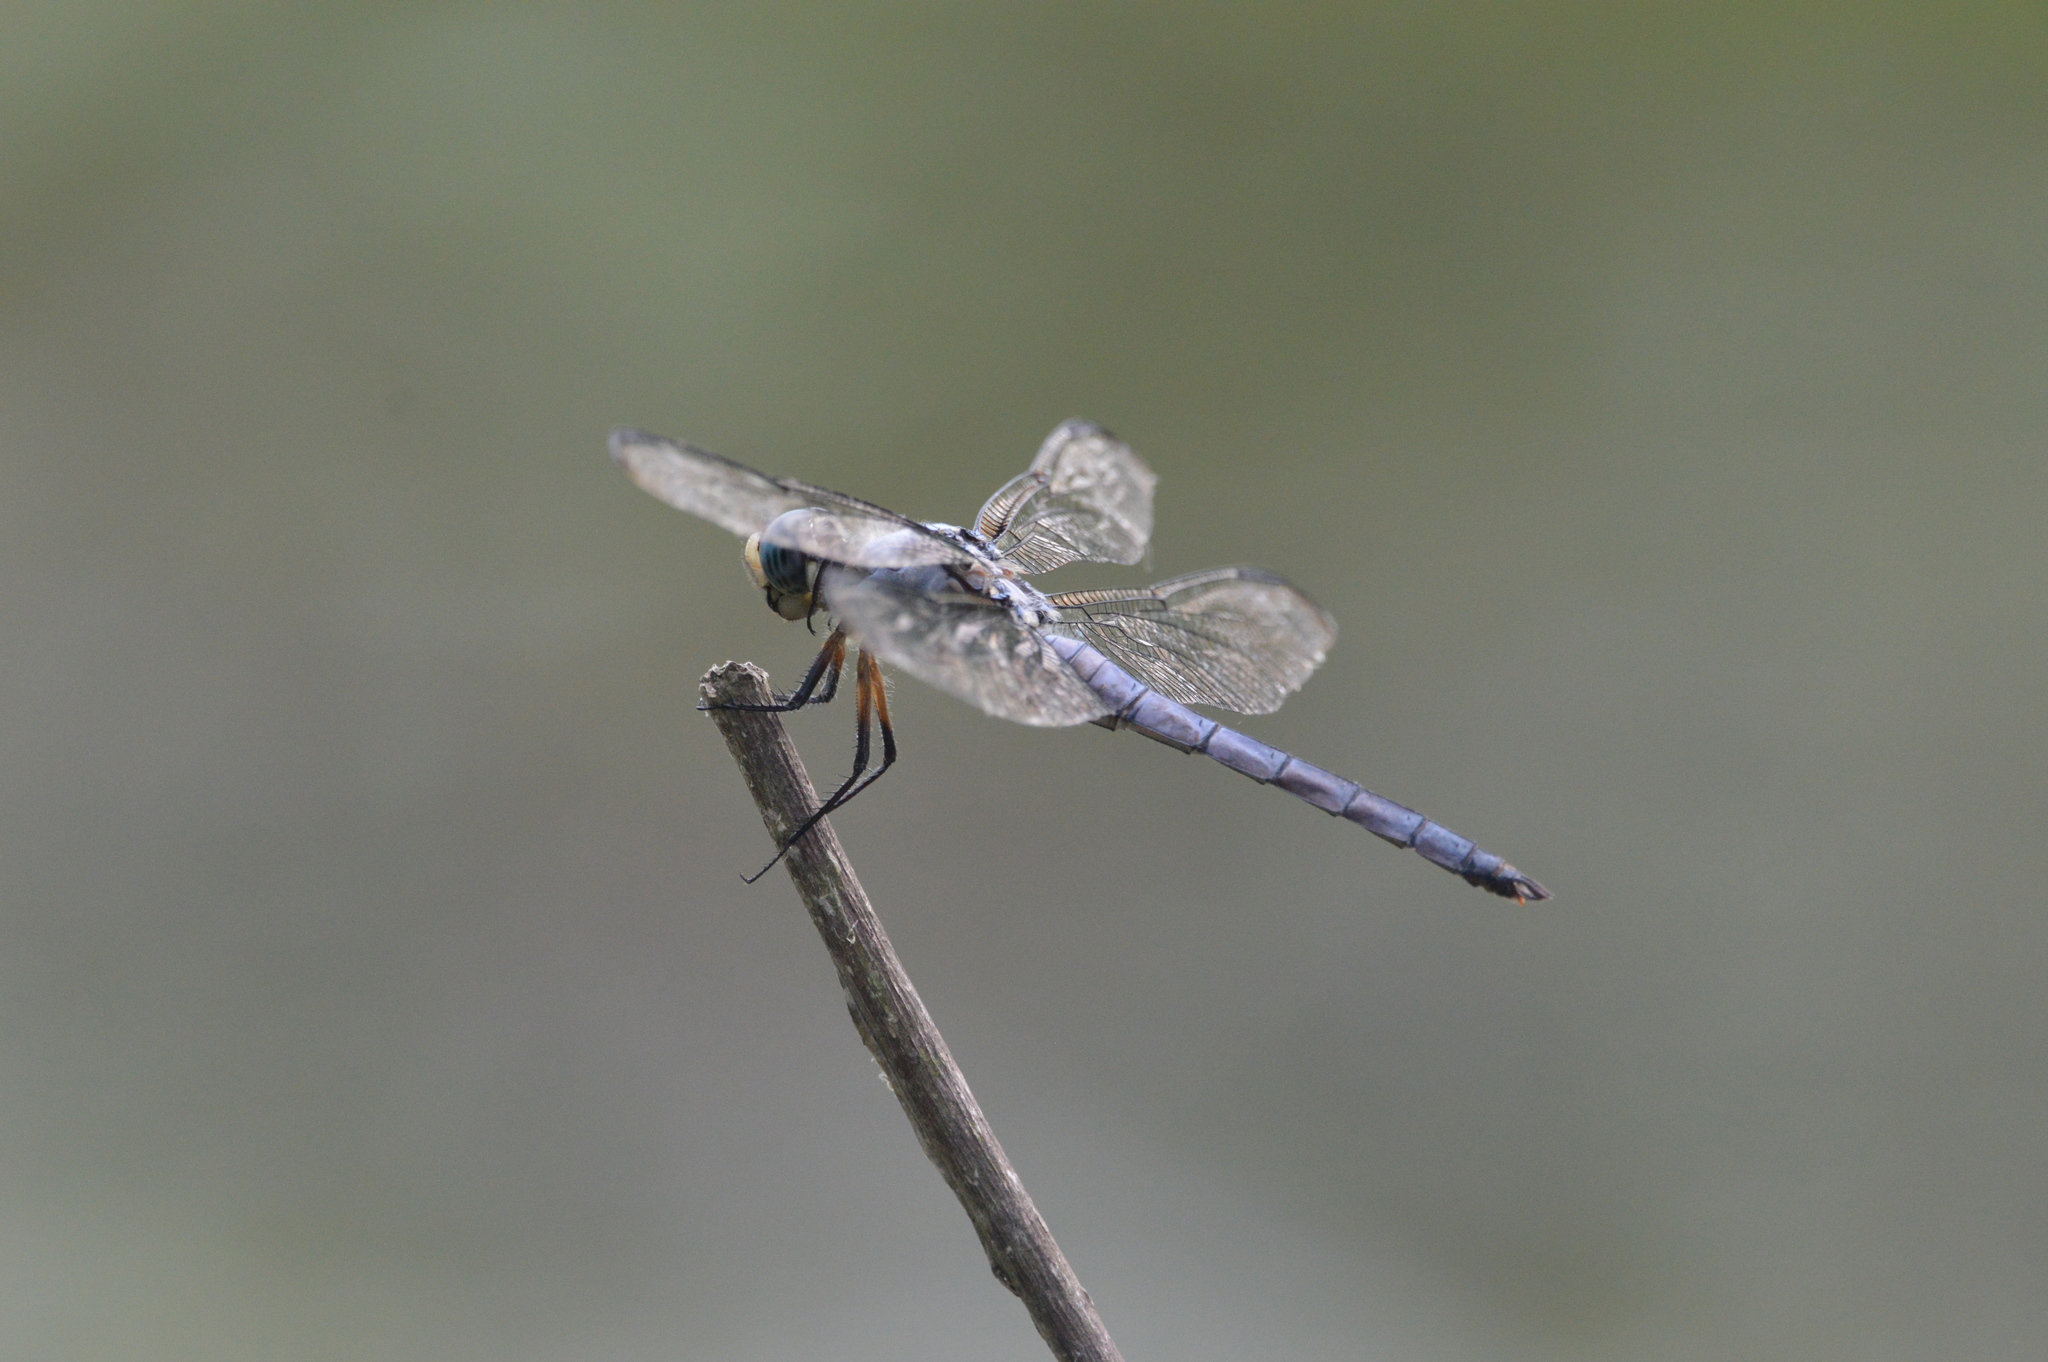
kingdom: Animalia
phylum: Arthropoda
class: Insecta
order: Odonata
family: Libellulidae
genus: Libellula
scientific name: Libellula vibrans
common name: Great blue skimmer
